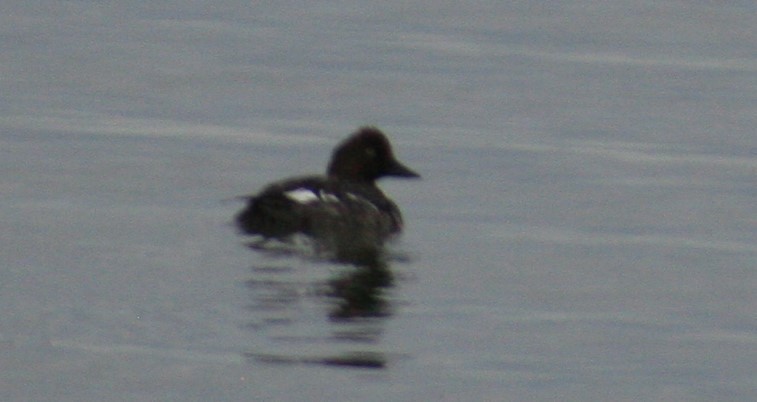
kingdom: Animalia
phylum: Chordata
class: Aves
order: Anseriformes
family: Anatidae
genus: Bucephala
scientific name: Bucephala clangula
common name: Common goldeneye
